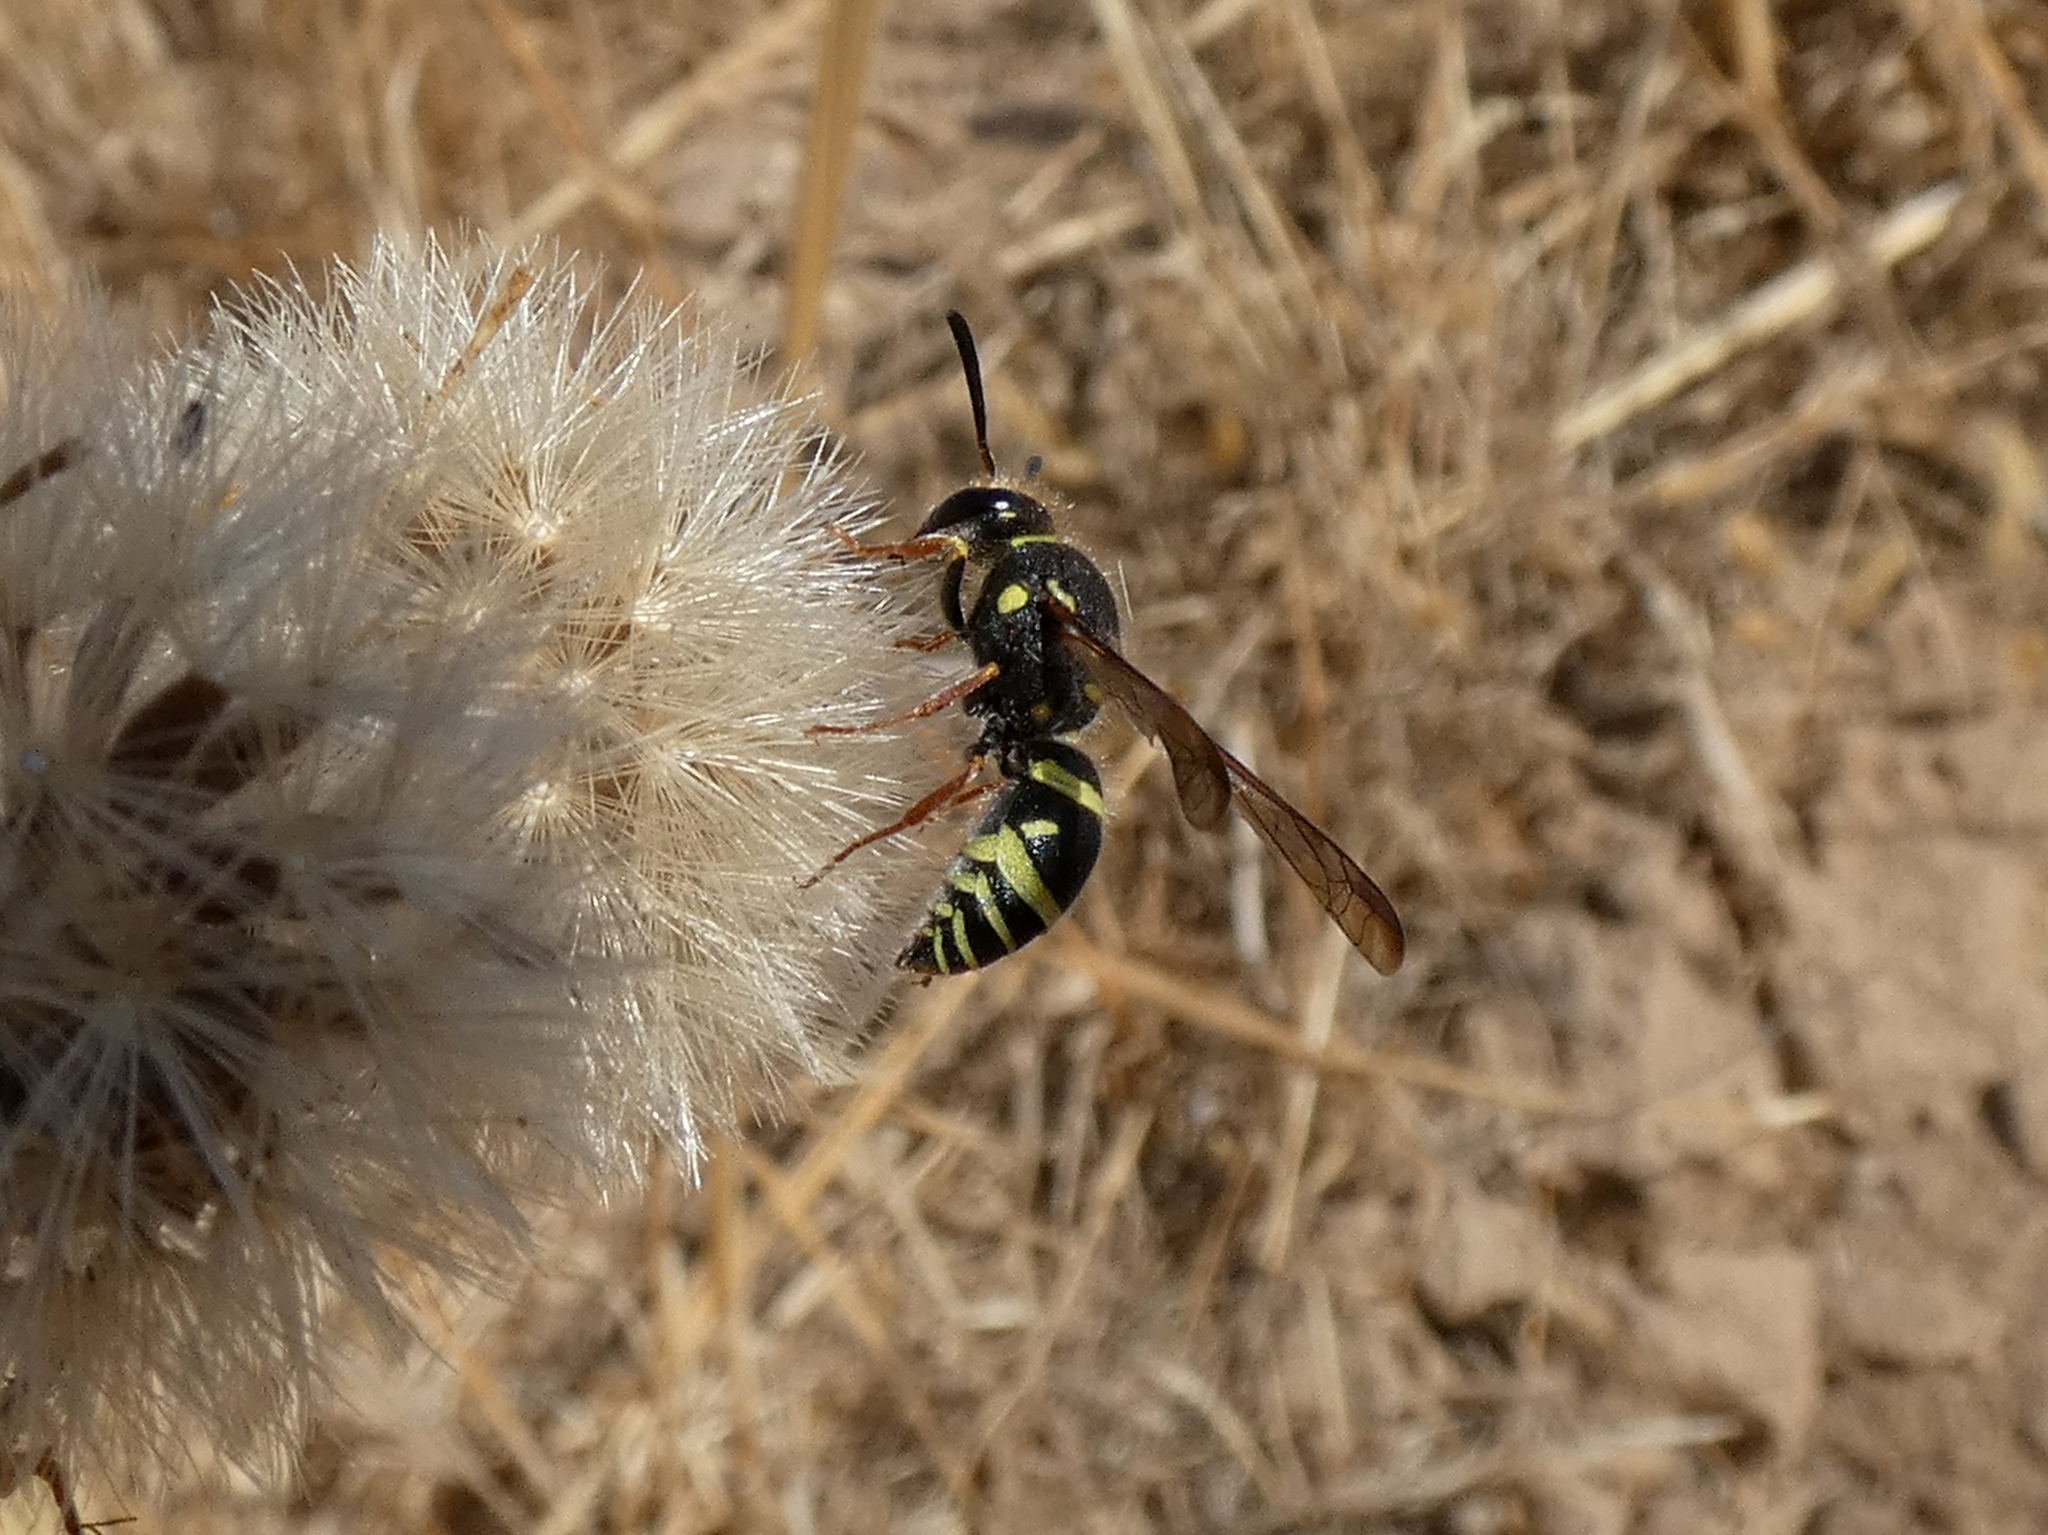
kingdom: Animalia
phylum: Arthropoda
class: Insecta
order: Hymenoptera
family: Vespidae
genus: Ancistrocerus
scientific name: Ancistrocerus bustamente
